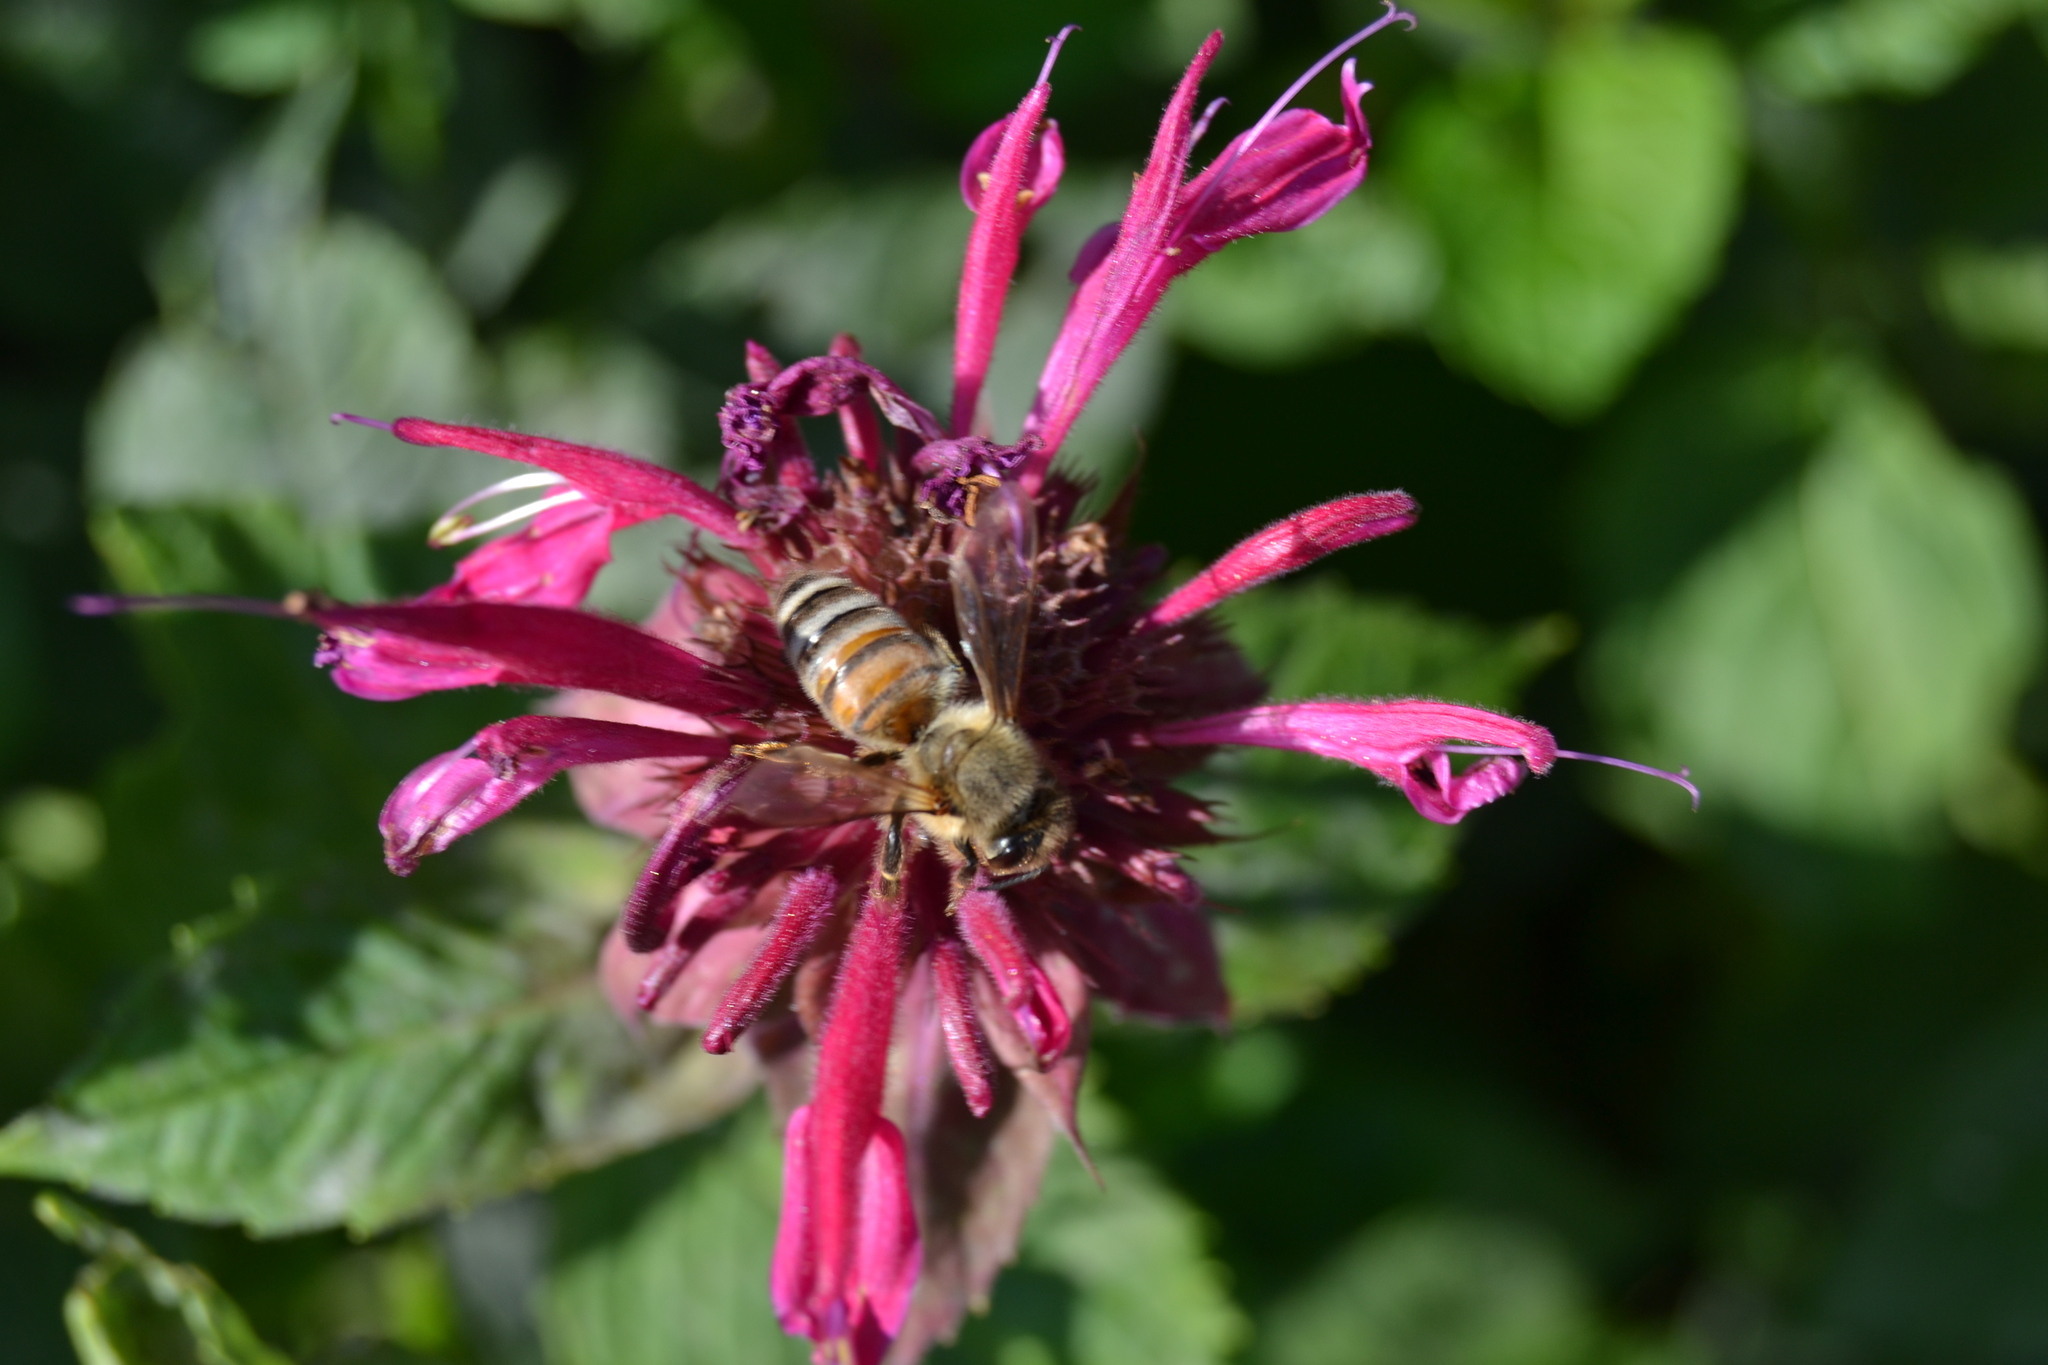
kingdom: Animalia
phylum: Arthropoda
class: Insecta
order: Hymenoptera
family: Apidae
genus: Apis
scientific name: Apis mellifera
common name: Honey bee
